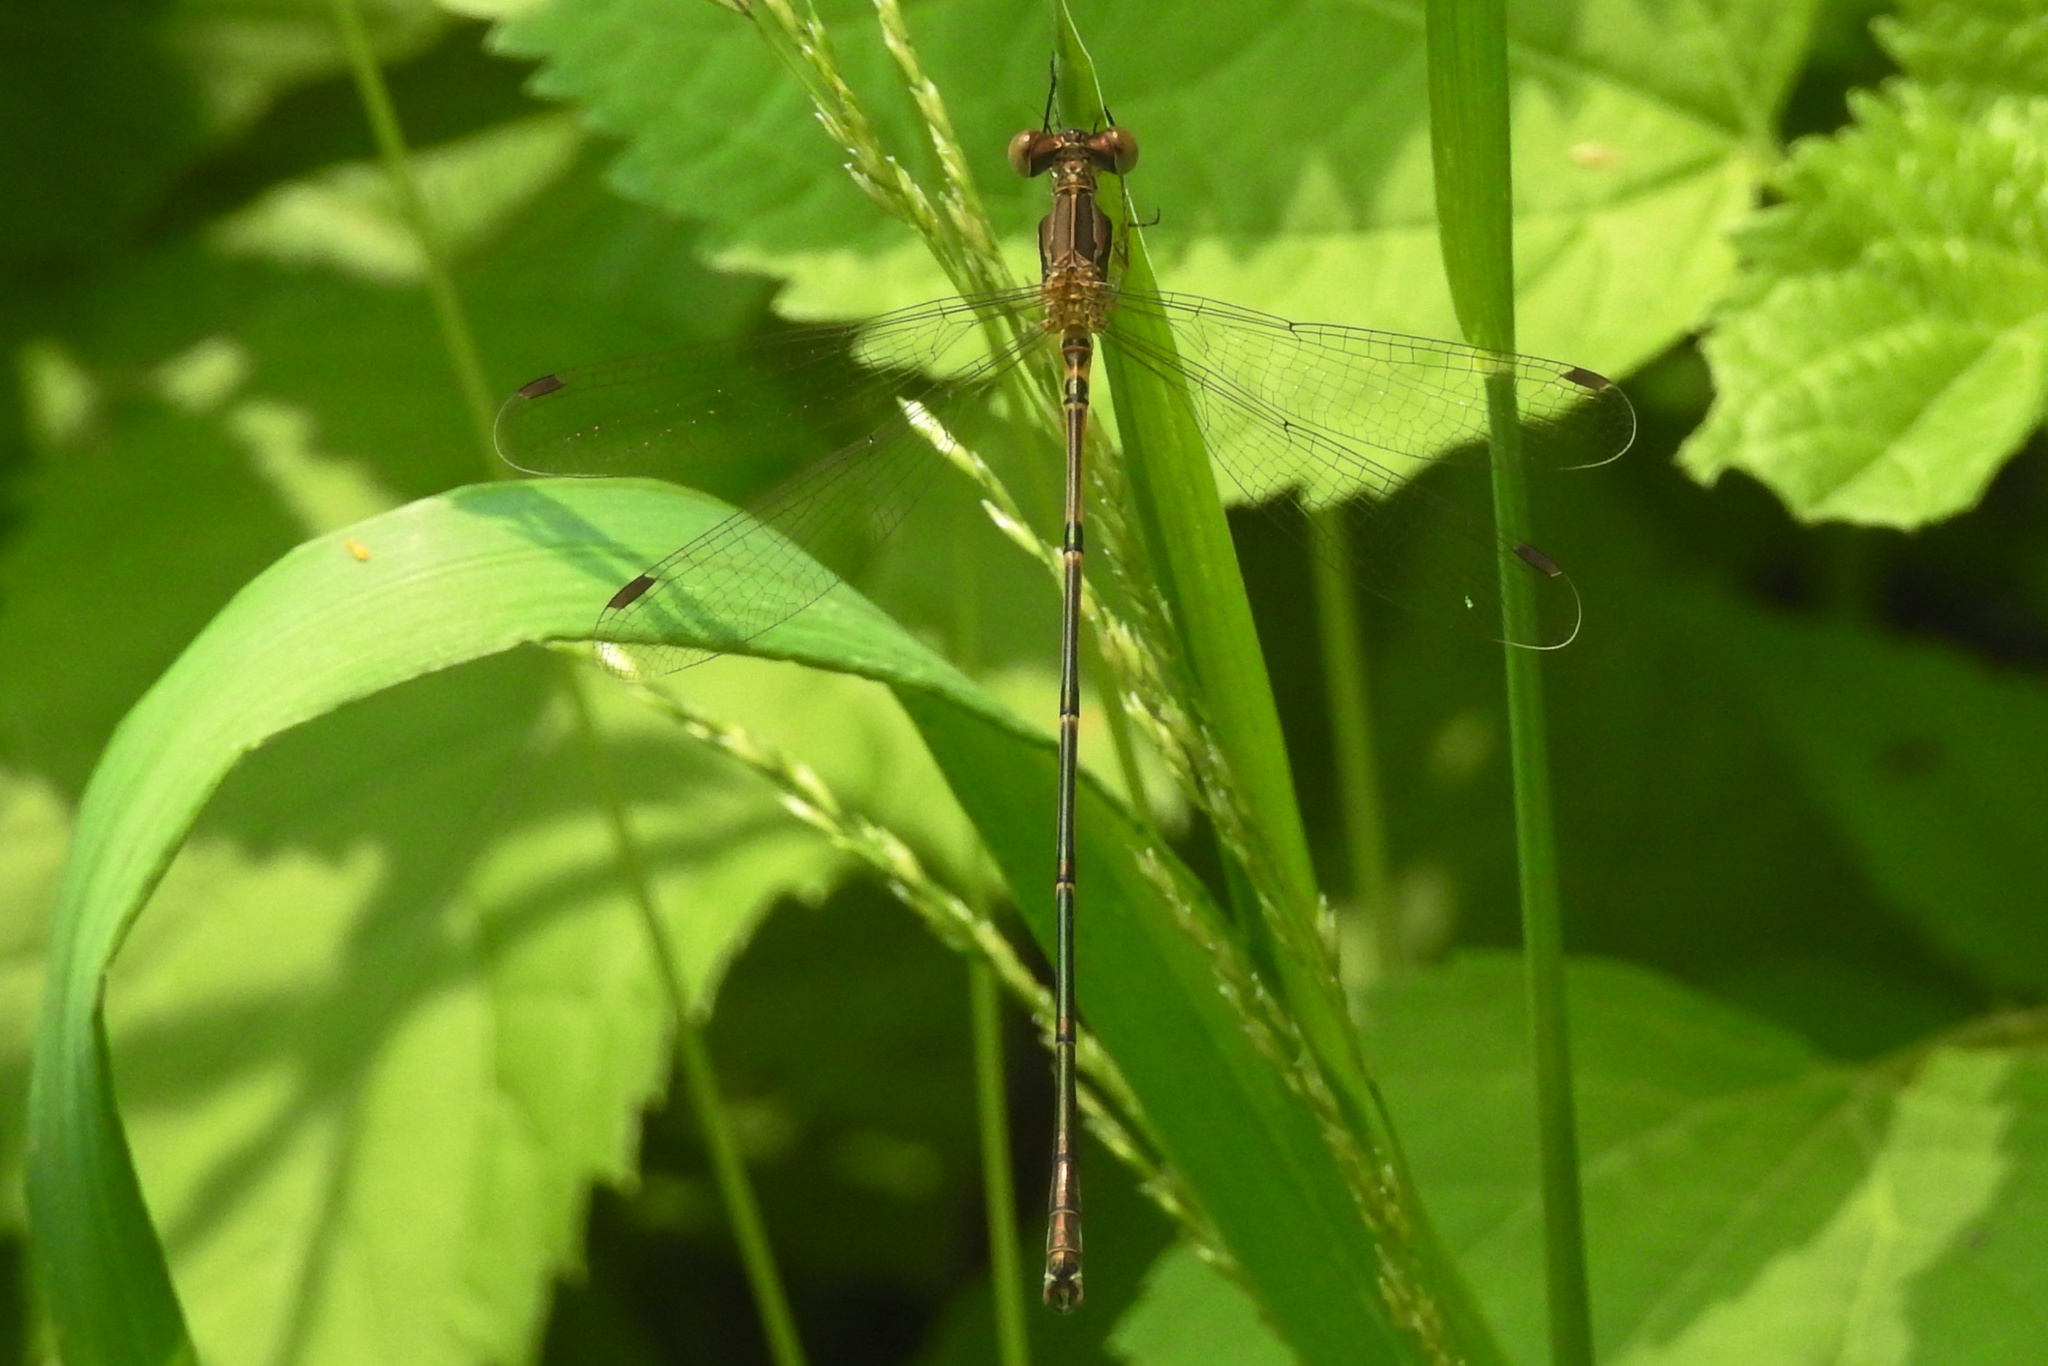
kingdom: Animalia
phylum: Arthropoda
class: Insecta
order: Odonata
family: Lestidae
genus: Lestes
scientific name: Lestes rectangularis
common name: Slender spreadwing
